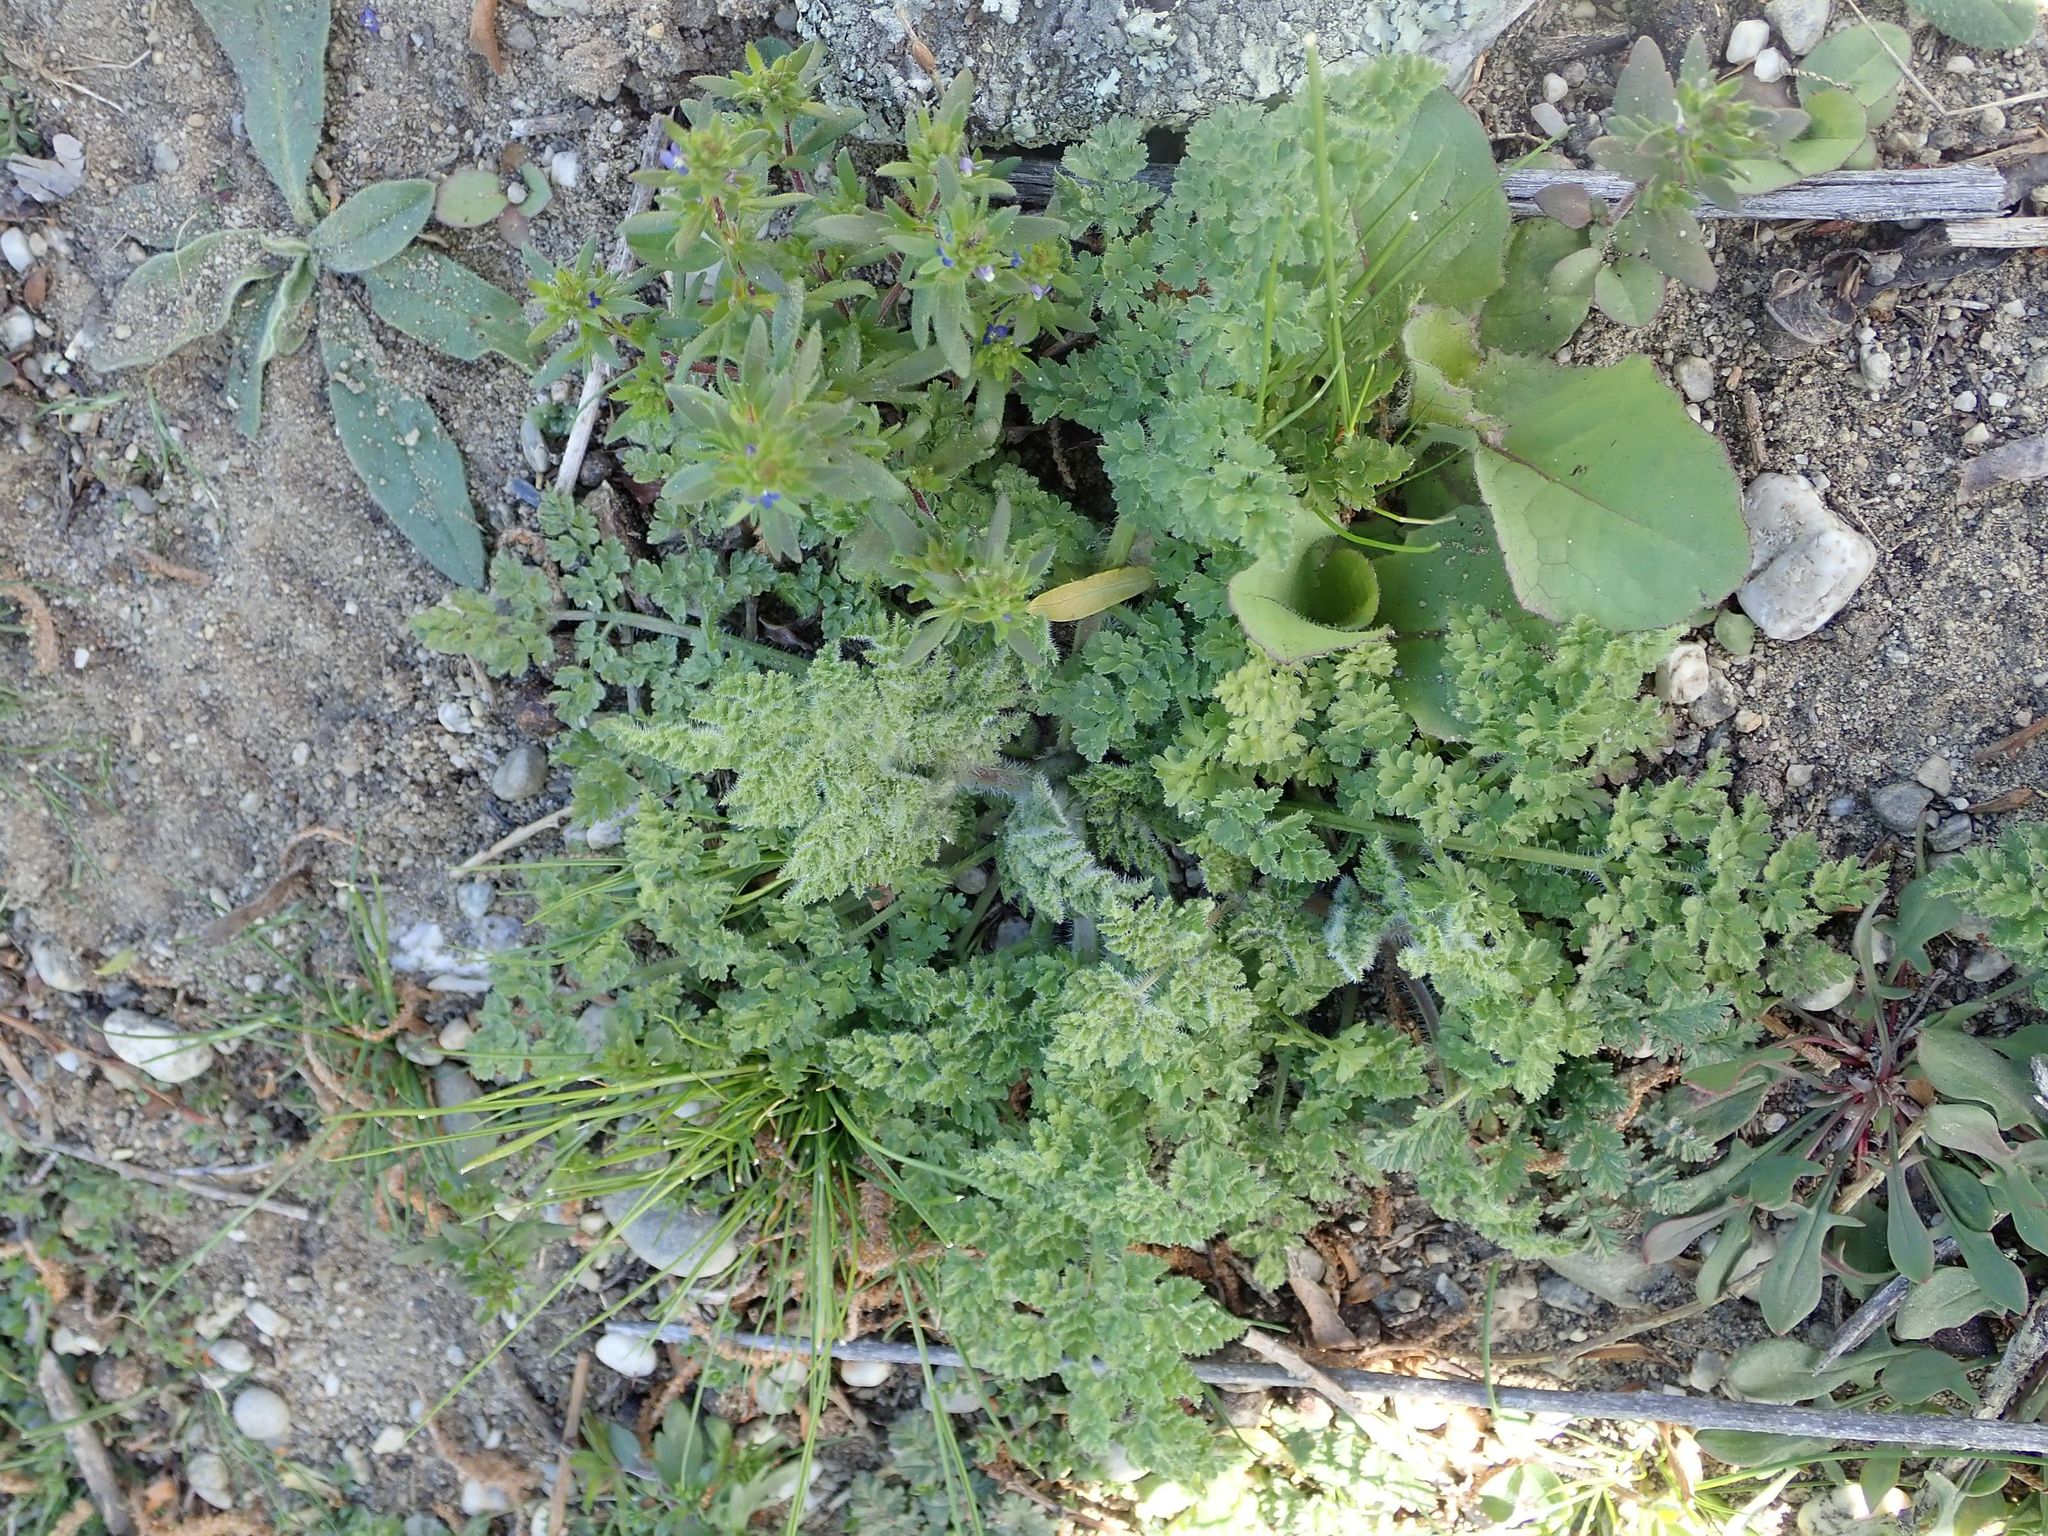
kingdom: Plantae
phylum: Tracheophyta
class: Magnoliopsida
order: Apiales
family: Apiaceae
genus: Anthriscus
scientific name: Anthriscus caucalis
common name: Bur chervil
